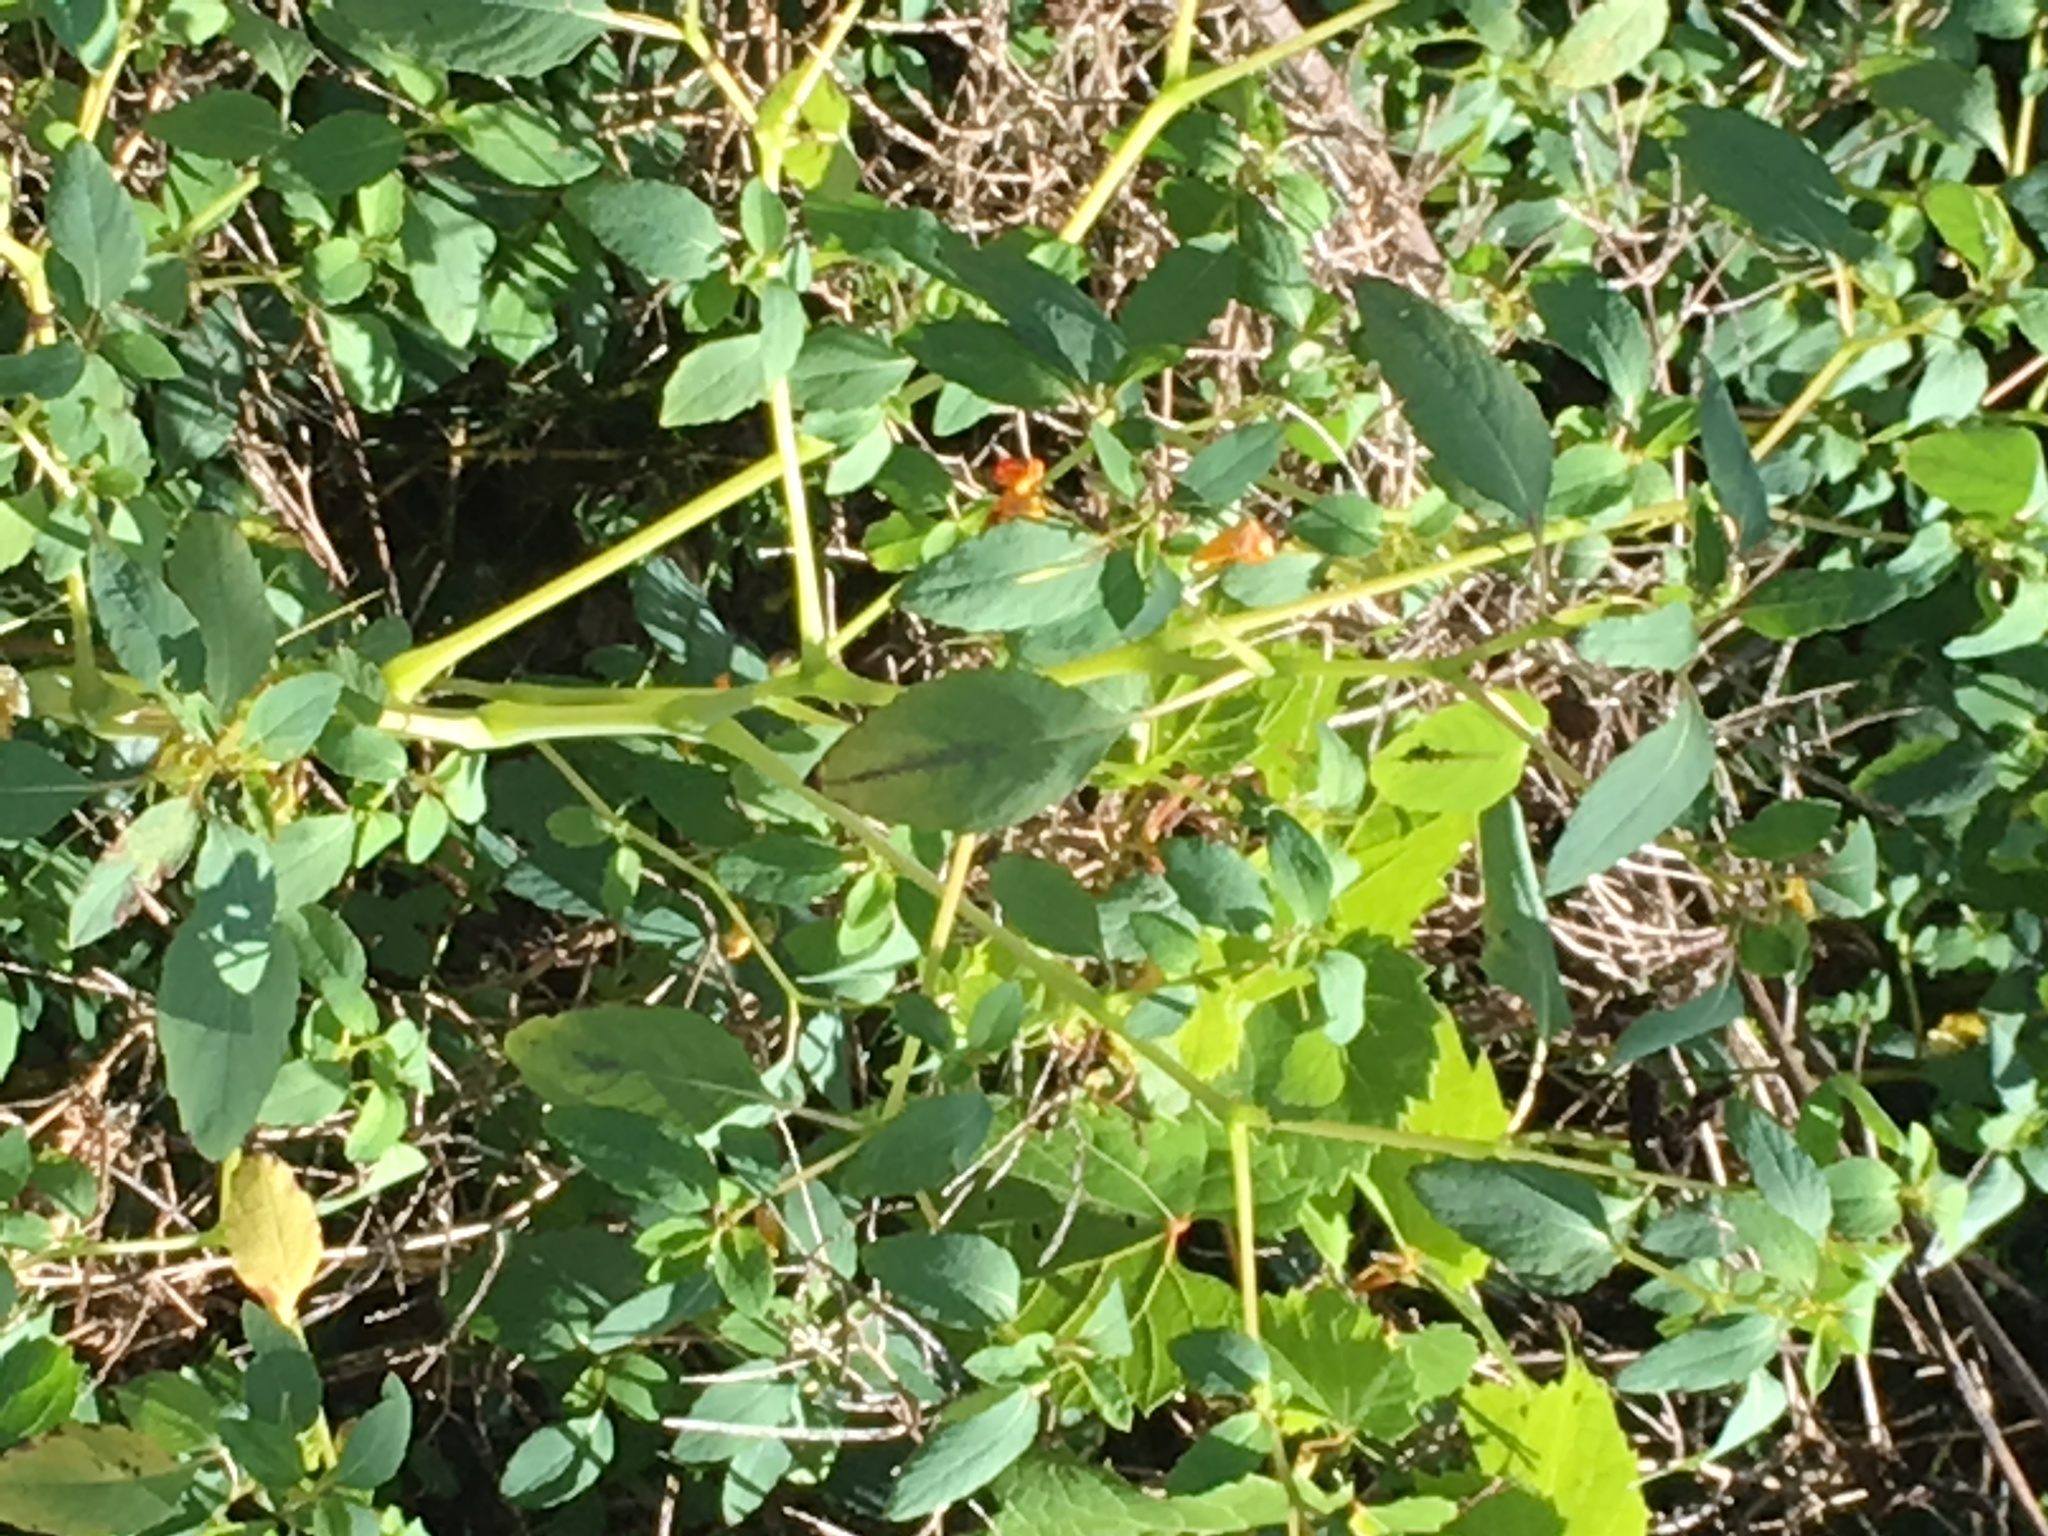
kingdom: Plantae
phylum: Tracheophyta
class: Magnoliopsida
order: Ericales
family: Balsaminaceae
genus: Impatiens
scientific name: Impatiens capensis
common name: Orange balsam
